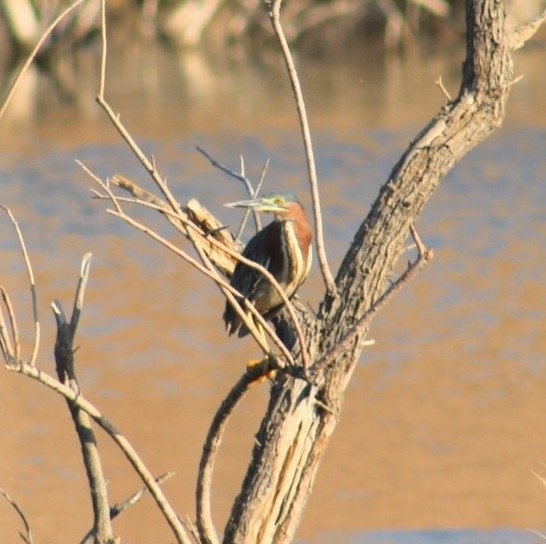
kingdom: Animalia
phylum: Chordata
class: Aves
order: Pelecaniformes
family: Ardeidae
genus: Butorides
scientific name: Butorides virescens
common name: Green heron
